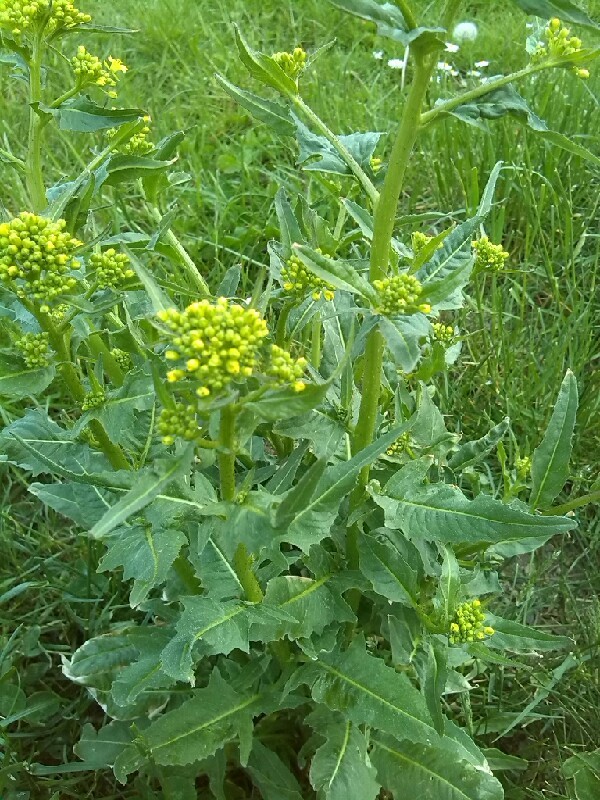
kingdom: Plantae
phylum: Tracheophyta
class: Magnoliopsida
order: Brassicales
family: Brassicaceae
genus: Bunias
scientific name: Bunias orientalis
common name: Warty-cabbage
